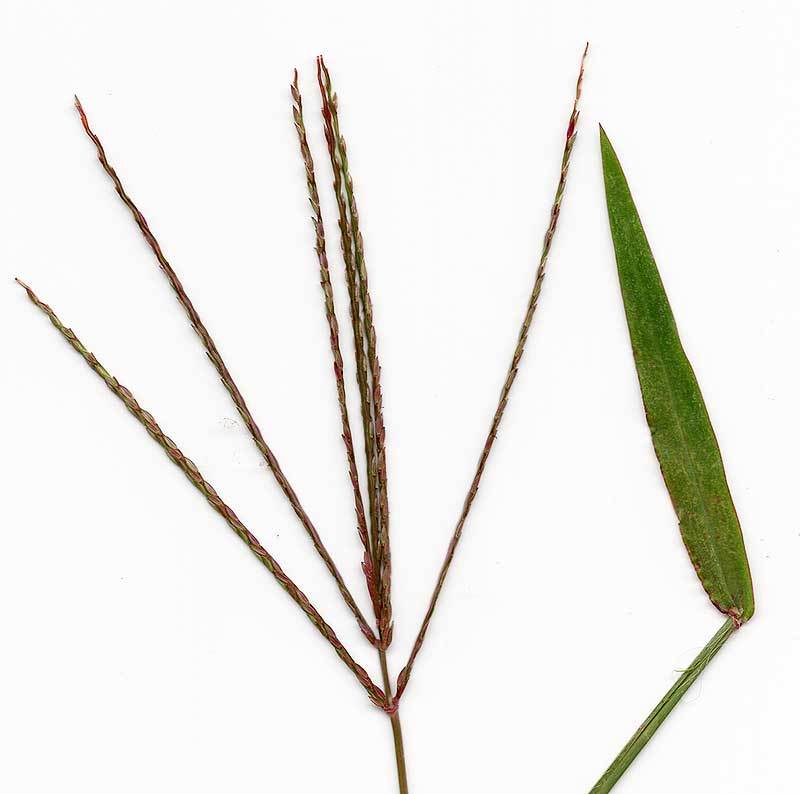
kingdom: Plantae
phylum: Tracheophyta
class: Liliopsida
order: Poales
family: Poaceae
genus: Digitaria
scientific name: Digitaria sanguinalis
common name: Hairy crabgrass
